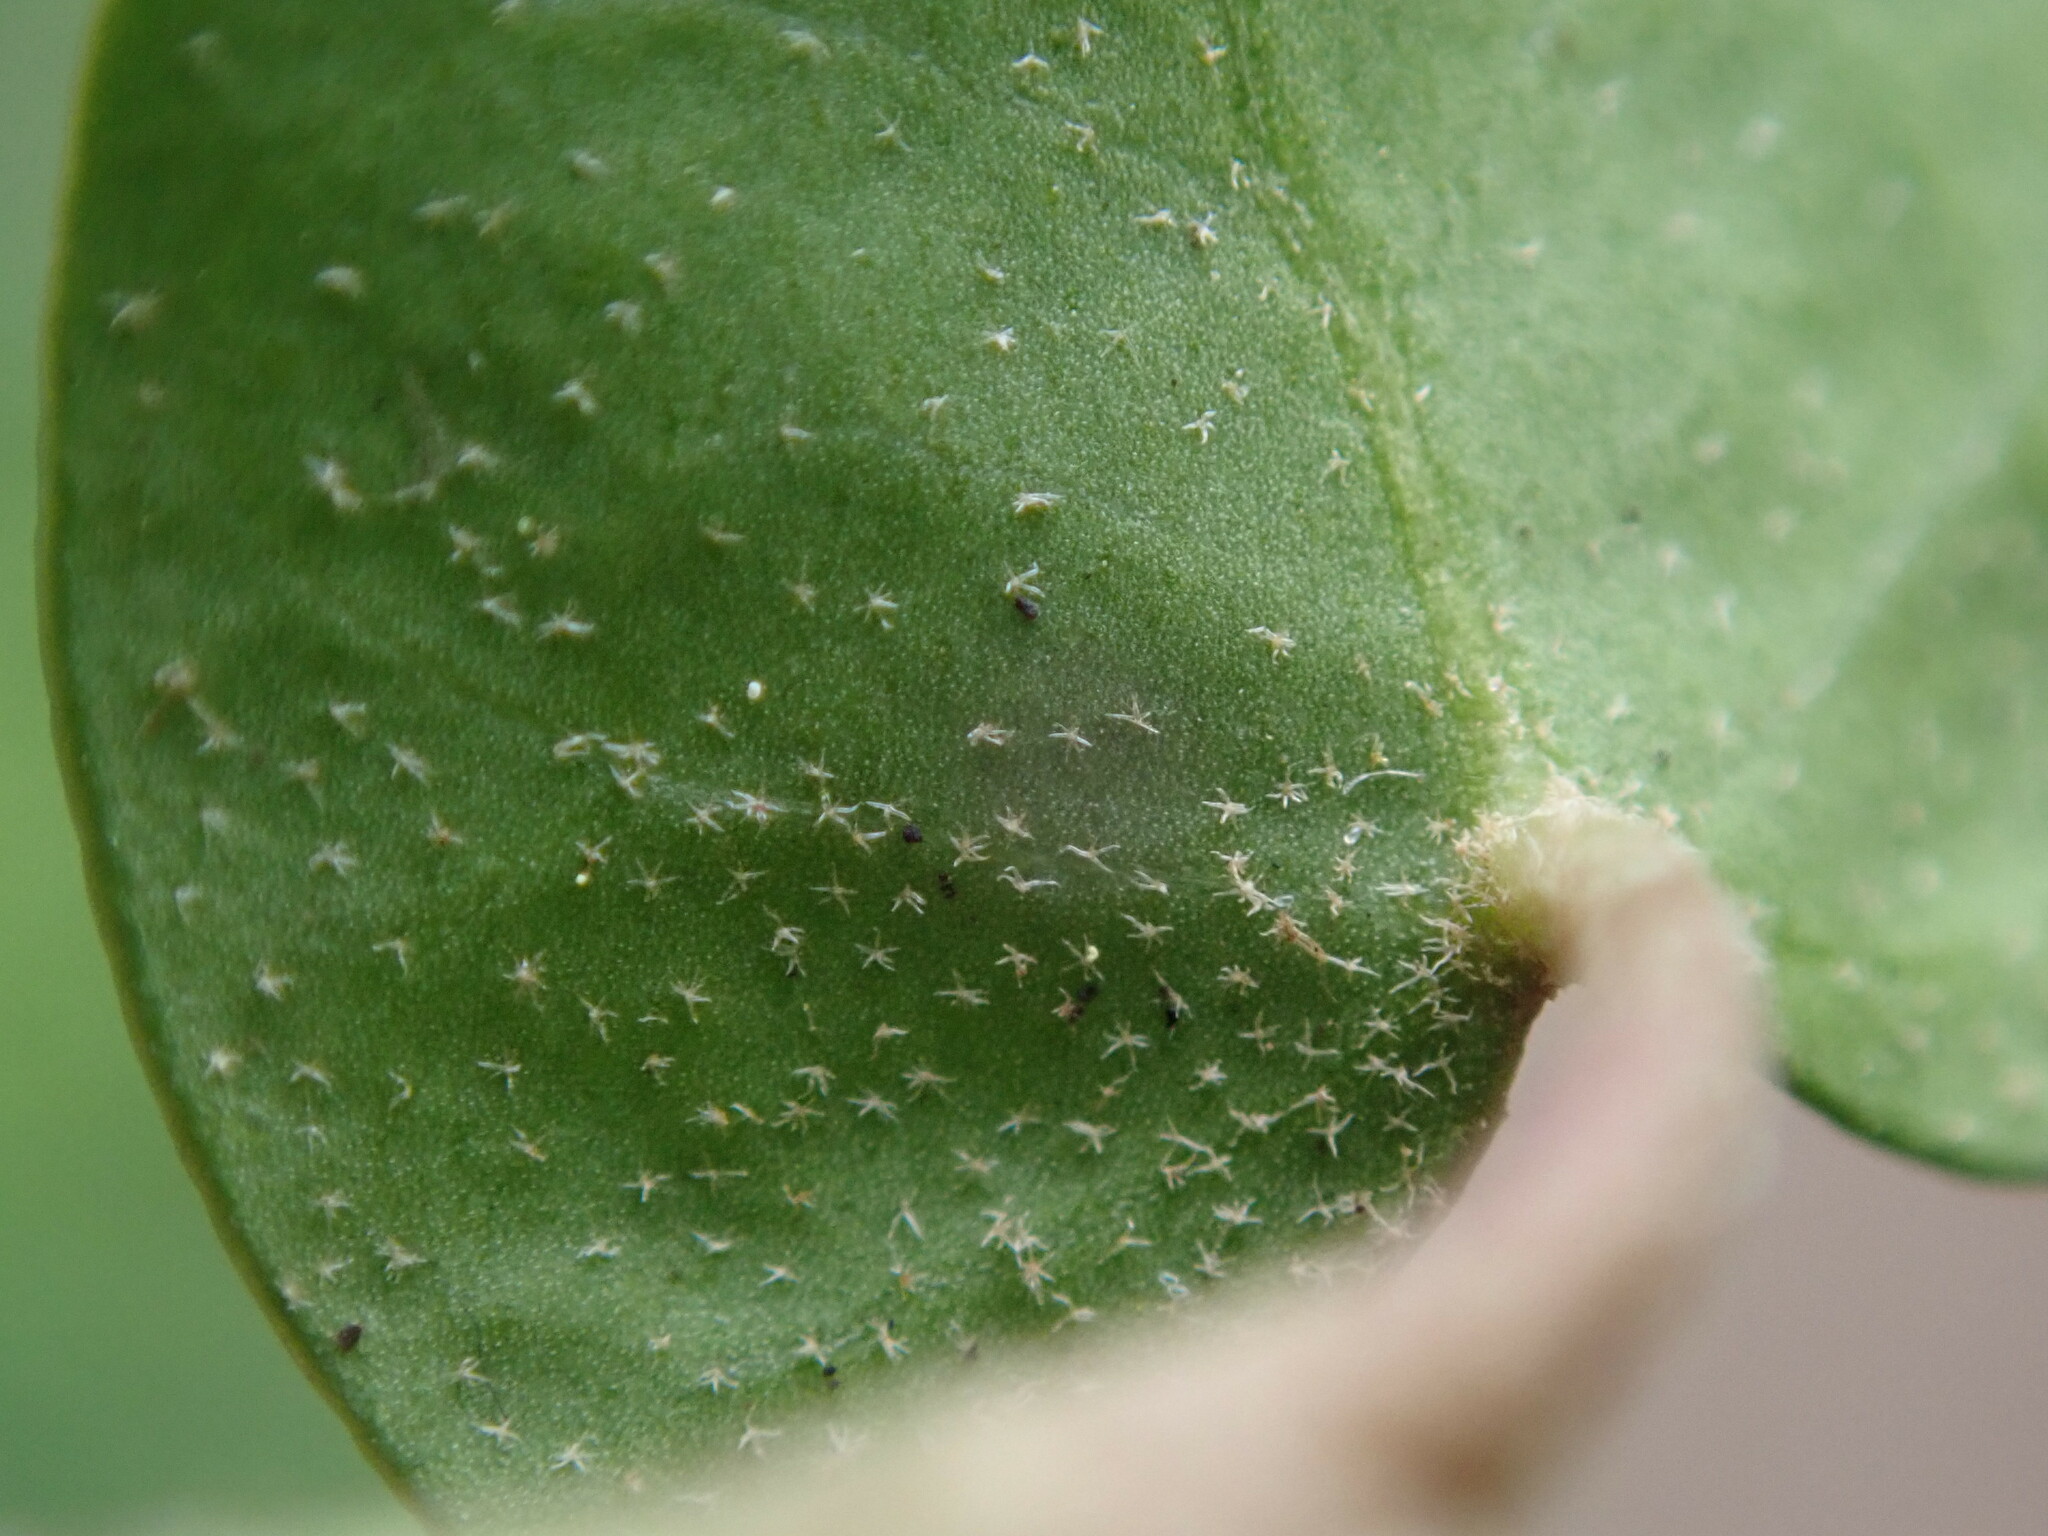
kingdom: Plantae
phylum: Tracheophyta
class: Magnoliopsida
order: Apiales
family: Araliaceae
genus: Hedera
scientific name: Hedera helix
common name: Ivy
